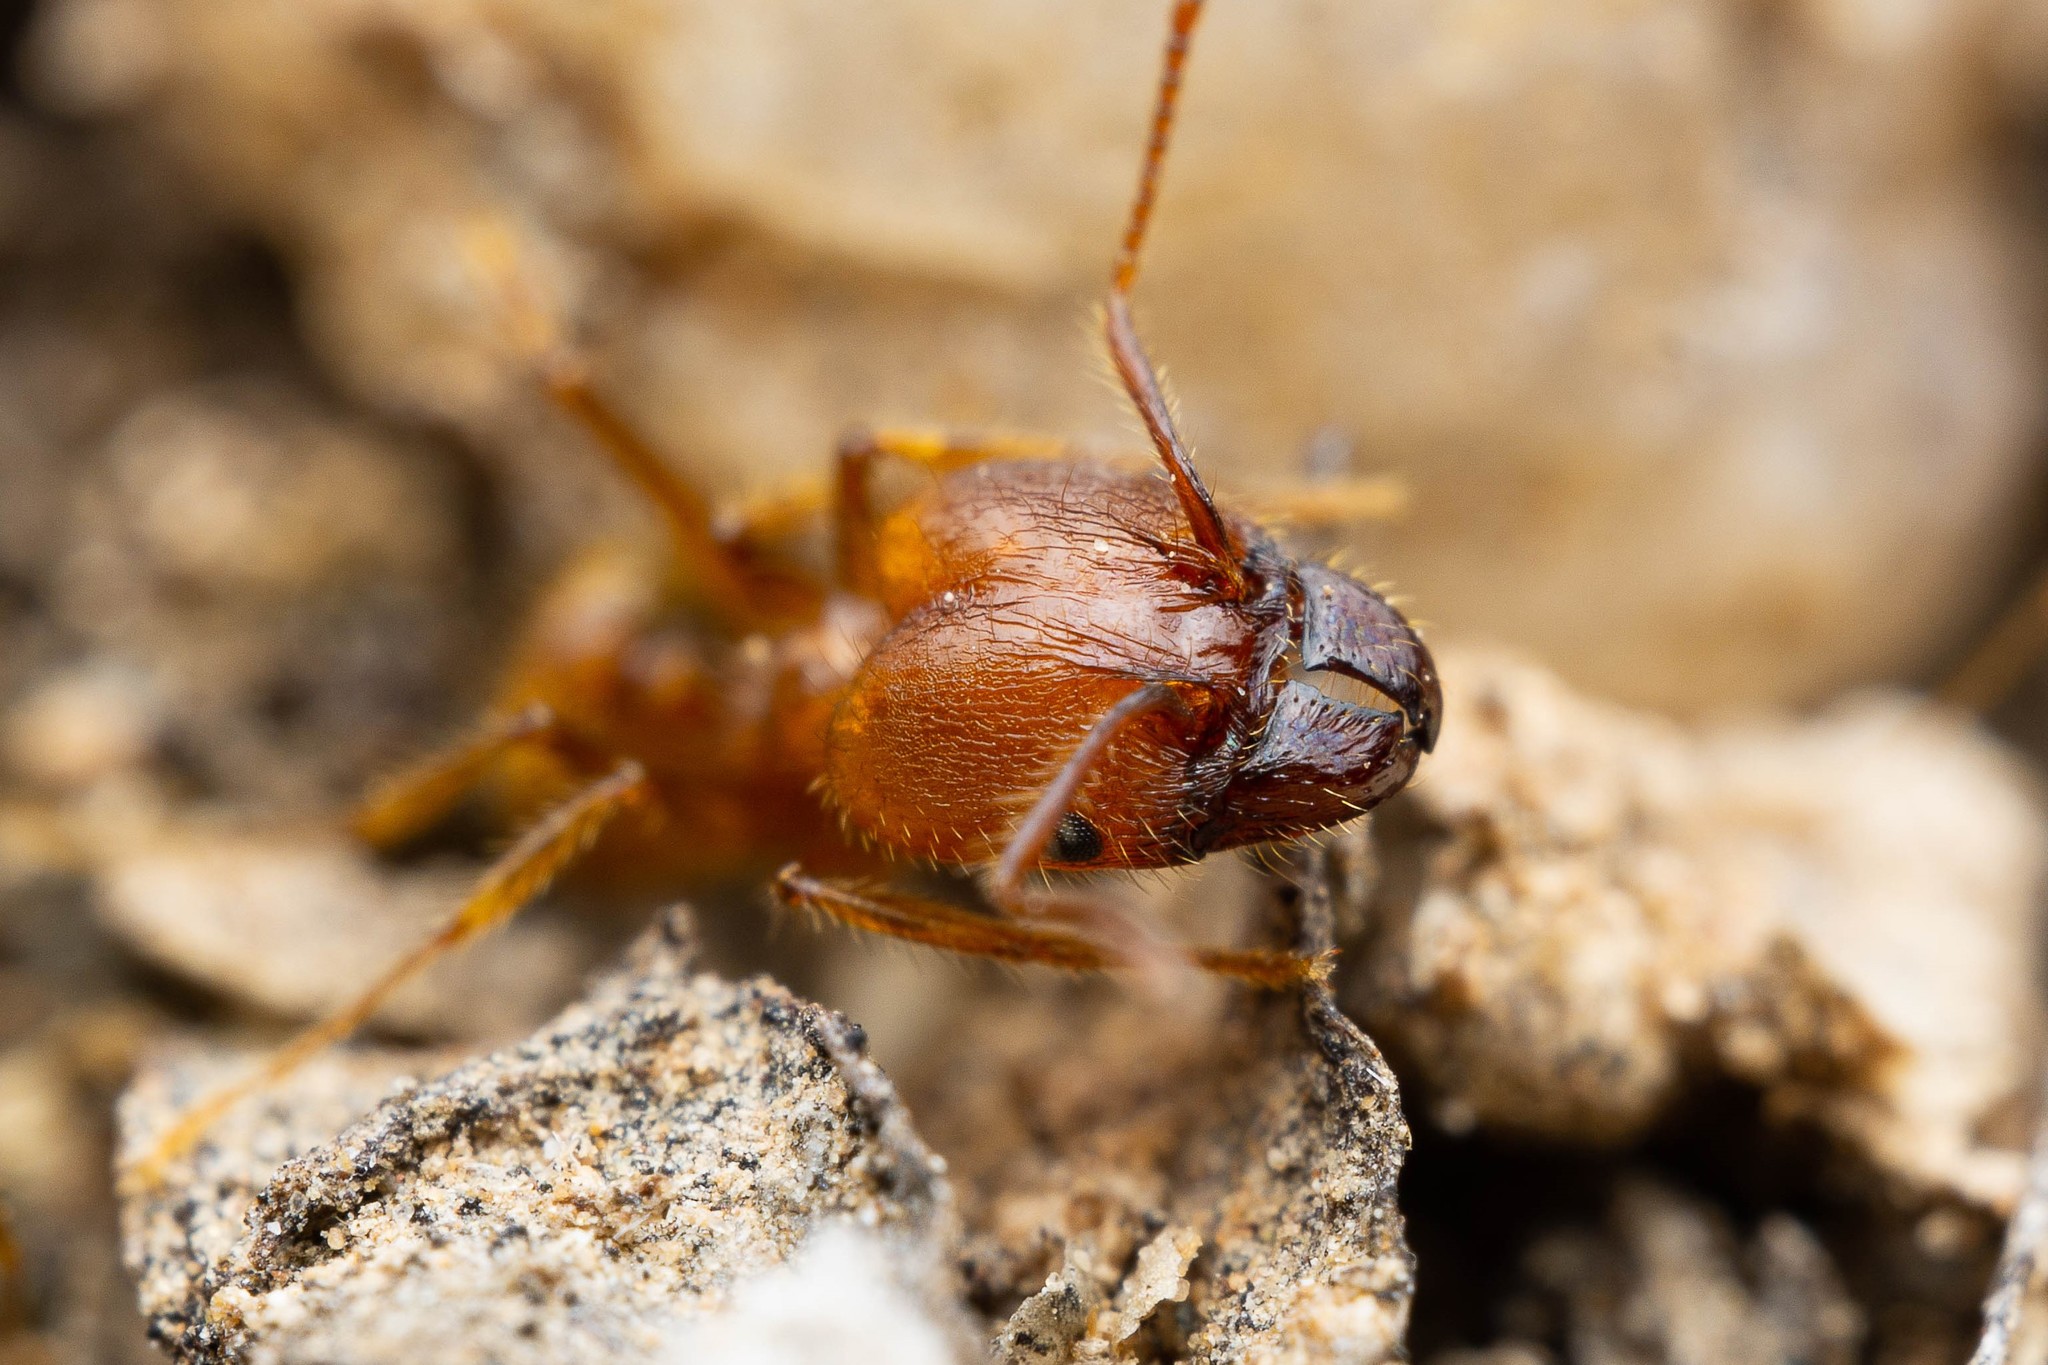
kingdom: Animalia
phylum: Arthropoda
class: Insecta
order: Hymenoptera
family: Formicidae
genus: Pheidole
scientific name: Pheidole hyatti
